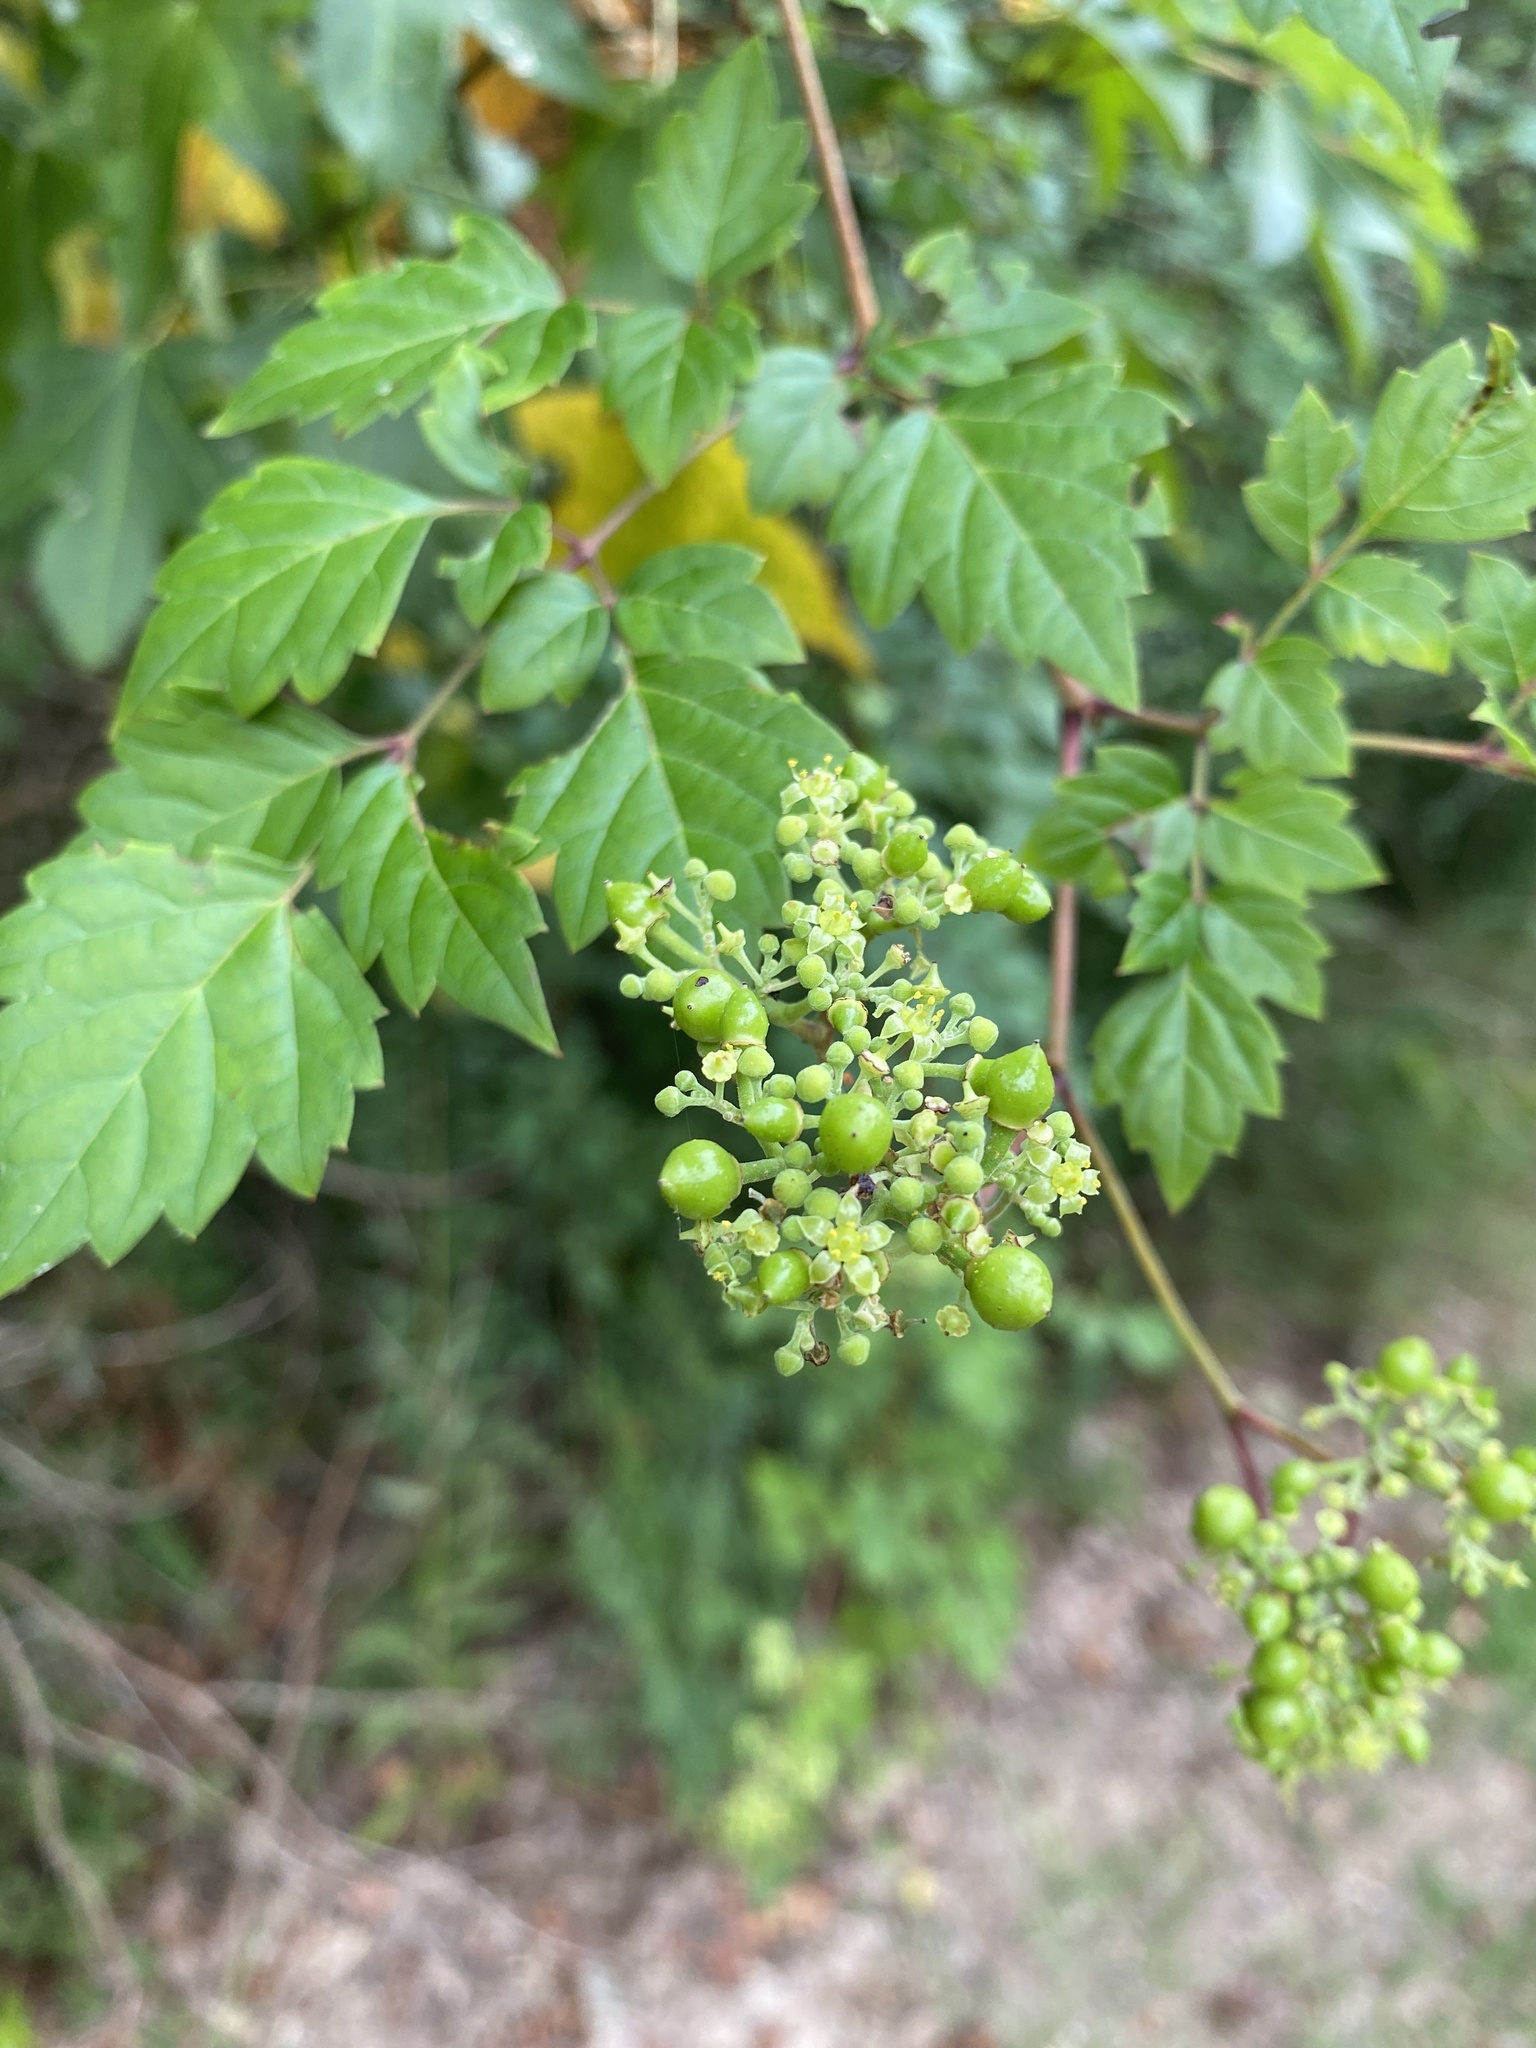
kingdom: Plantae
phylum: Tracheophyta
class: Magnoliopsida
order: Vitales
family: Vitaceae
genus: Nekemias
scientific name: Nekemias arborea
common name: Peppervine
